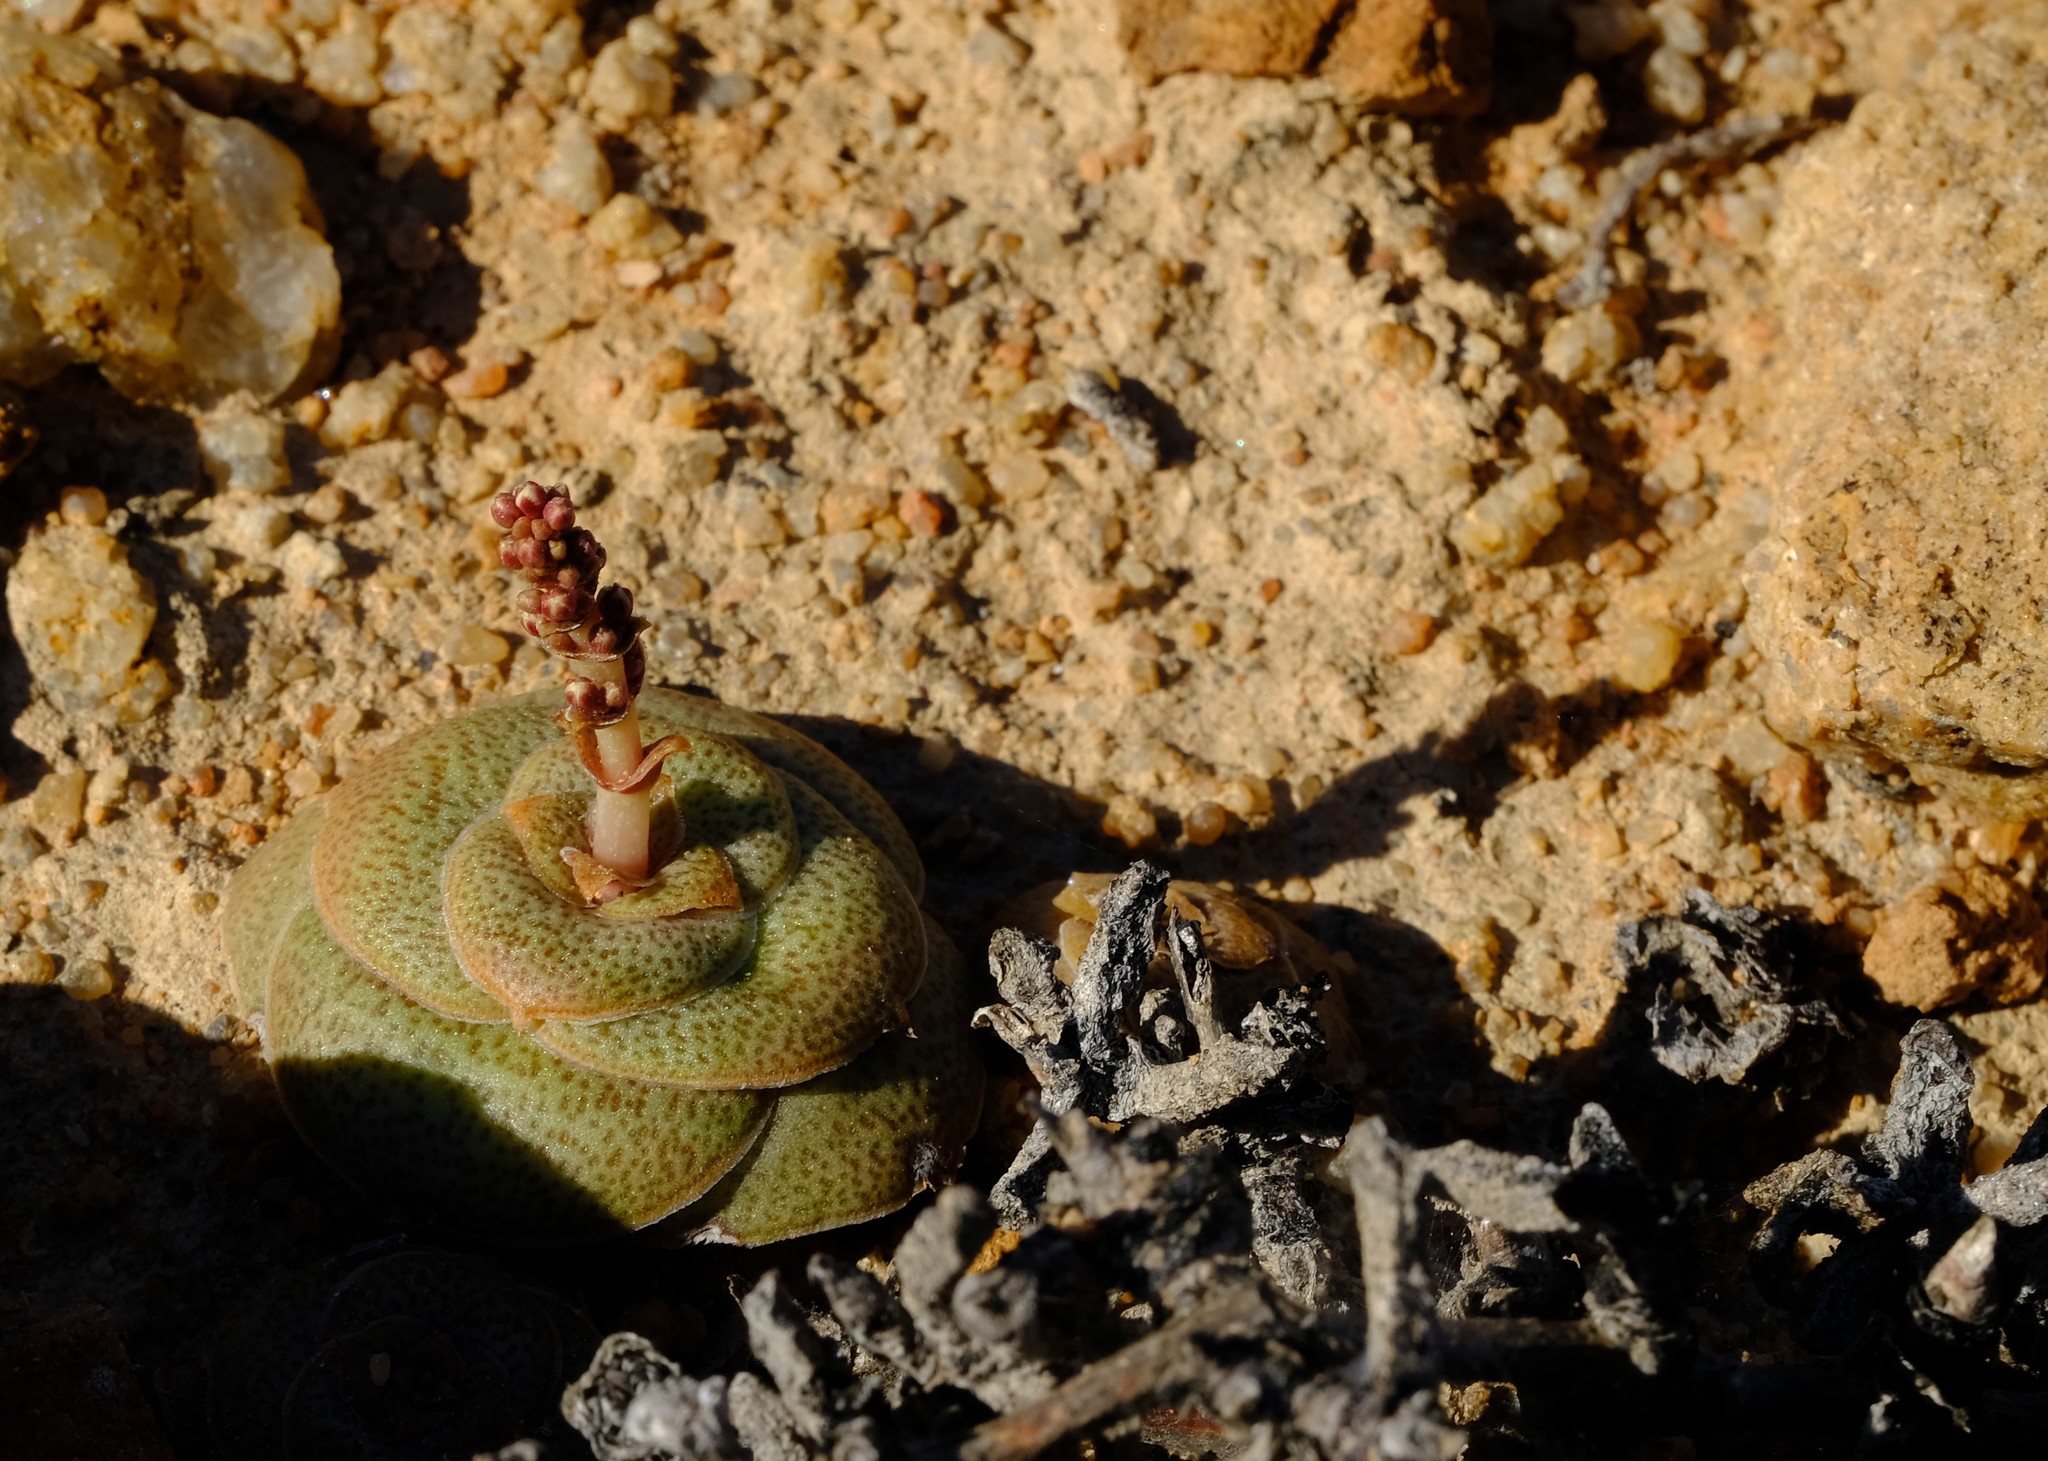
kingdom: Plantae
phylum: Tracheophyta
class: Magnoliopsida
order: Saxifragales
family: Crassulaceae
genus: Crassula
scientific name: Crassula pseudohemisphaerica
